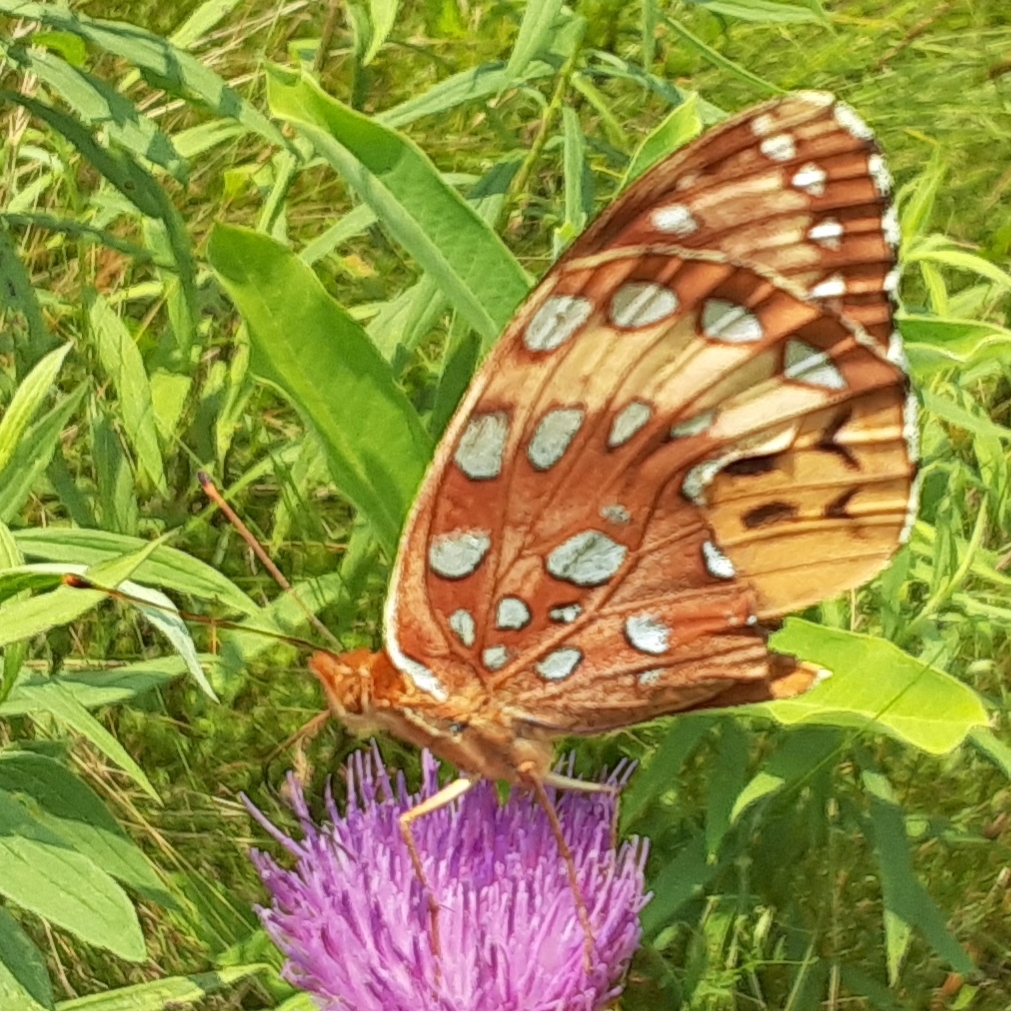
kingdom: Animalia
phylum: Arthropoda
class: Insecta
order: Lepidoptera
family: Nymphalidae
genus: Speyeria
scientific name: Speyeria cybele
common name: Great spangled fritillary
